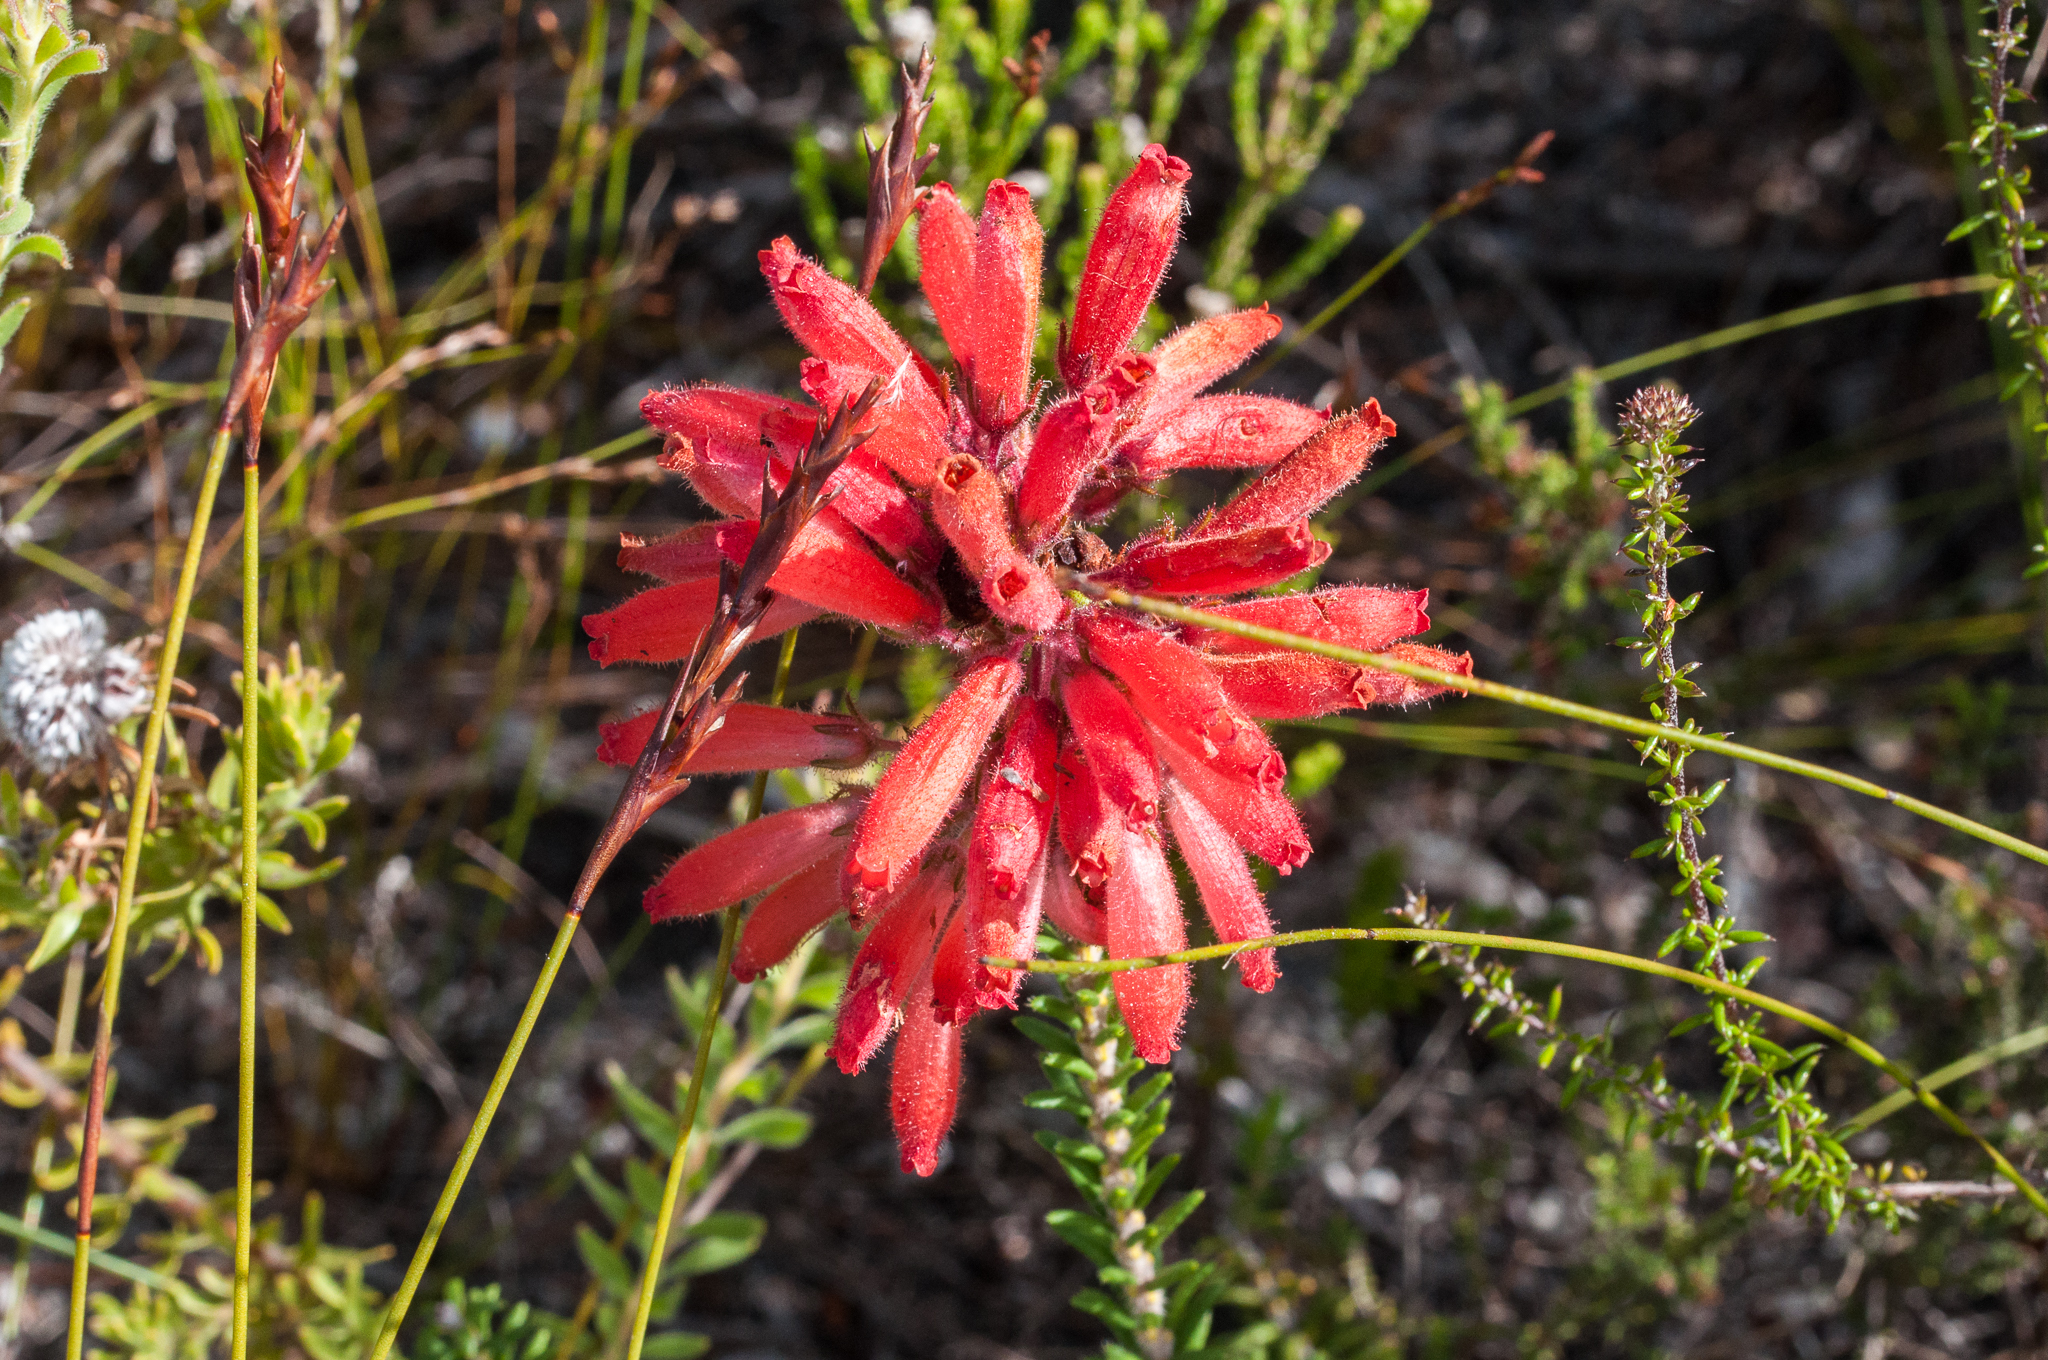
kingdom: Plantae
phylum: Tracheophyta
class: Magnoliopsida
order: Ericales
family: Ericaceae
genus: Erica
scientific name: Erica cerinthoides
